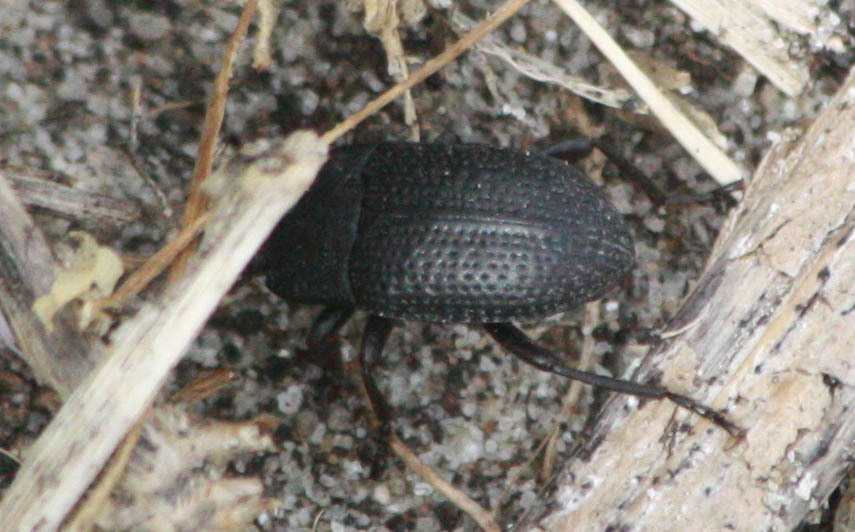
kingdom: Animalia
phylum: Arthropoda
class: Insecta
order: Coleoptera
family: Tenebrionidae
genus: Asiopus
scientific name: Asiopus
